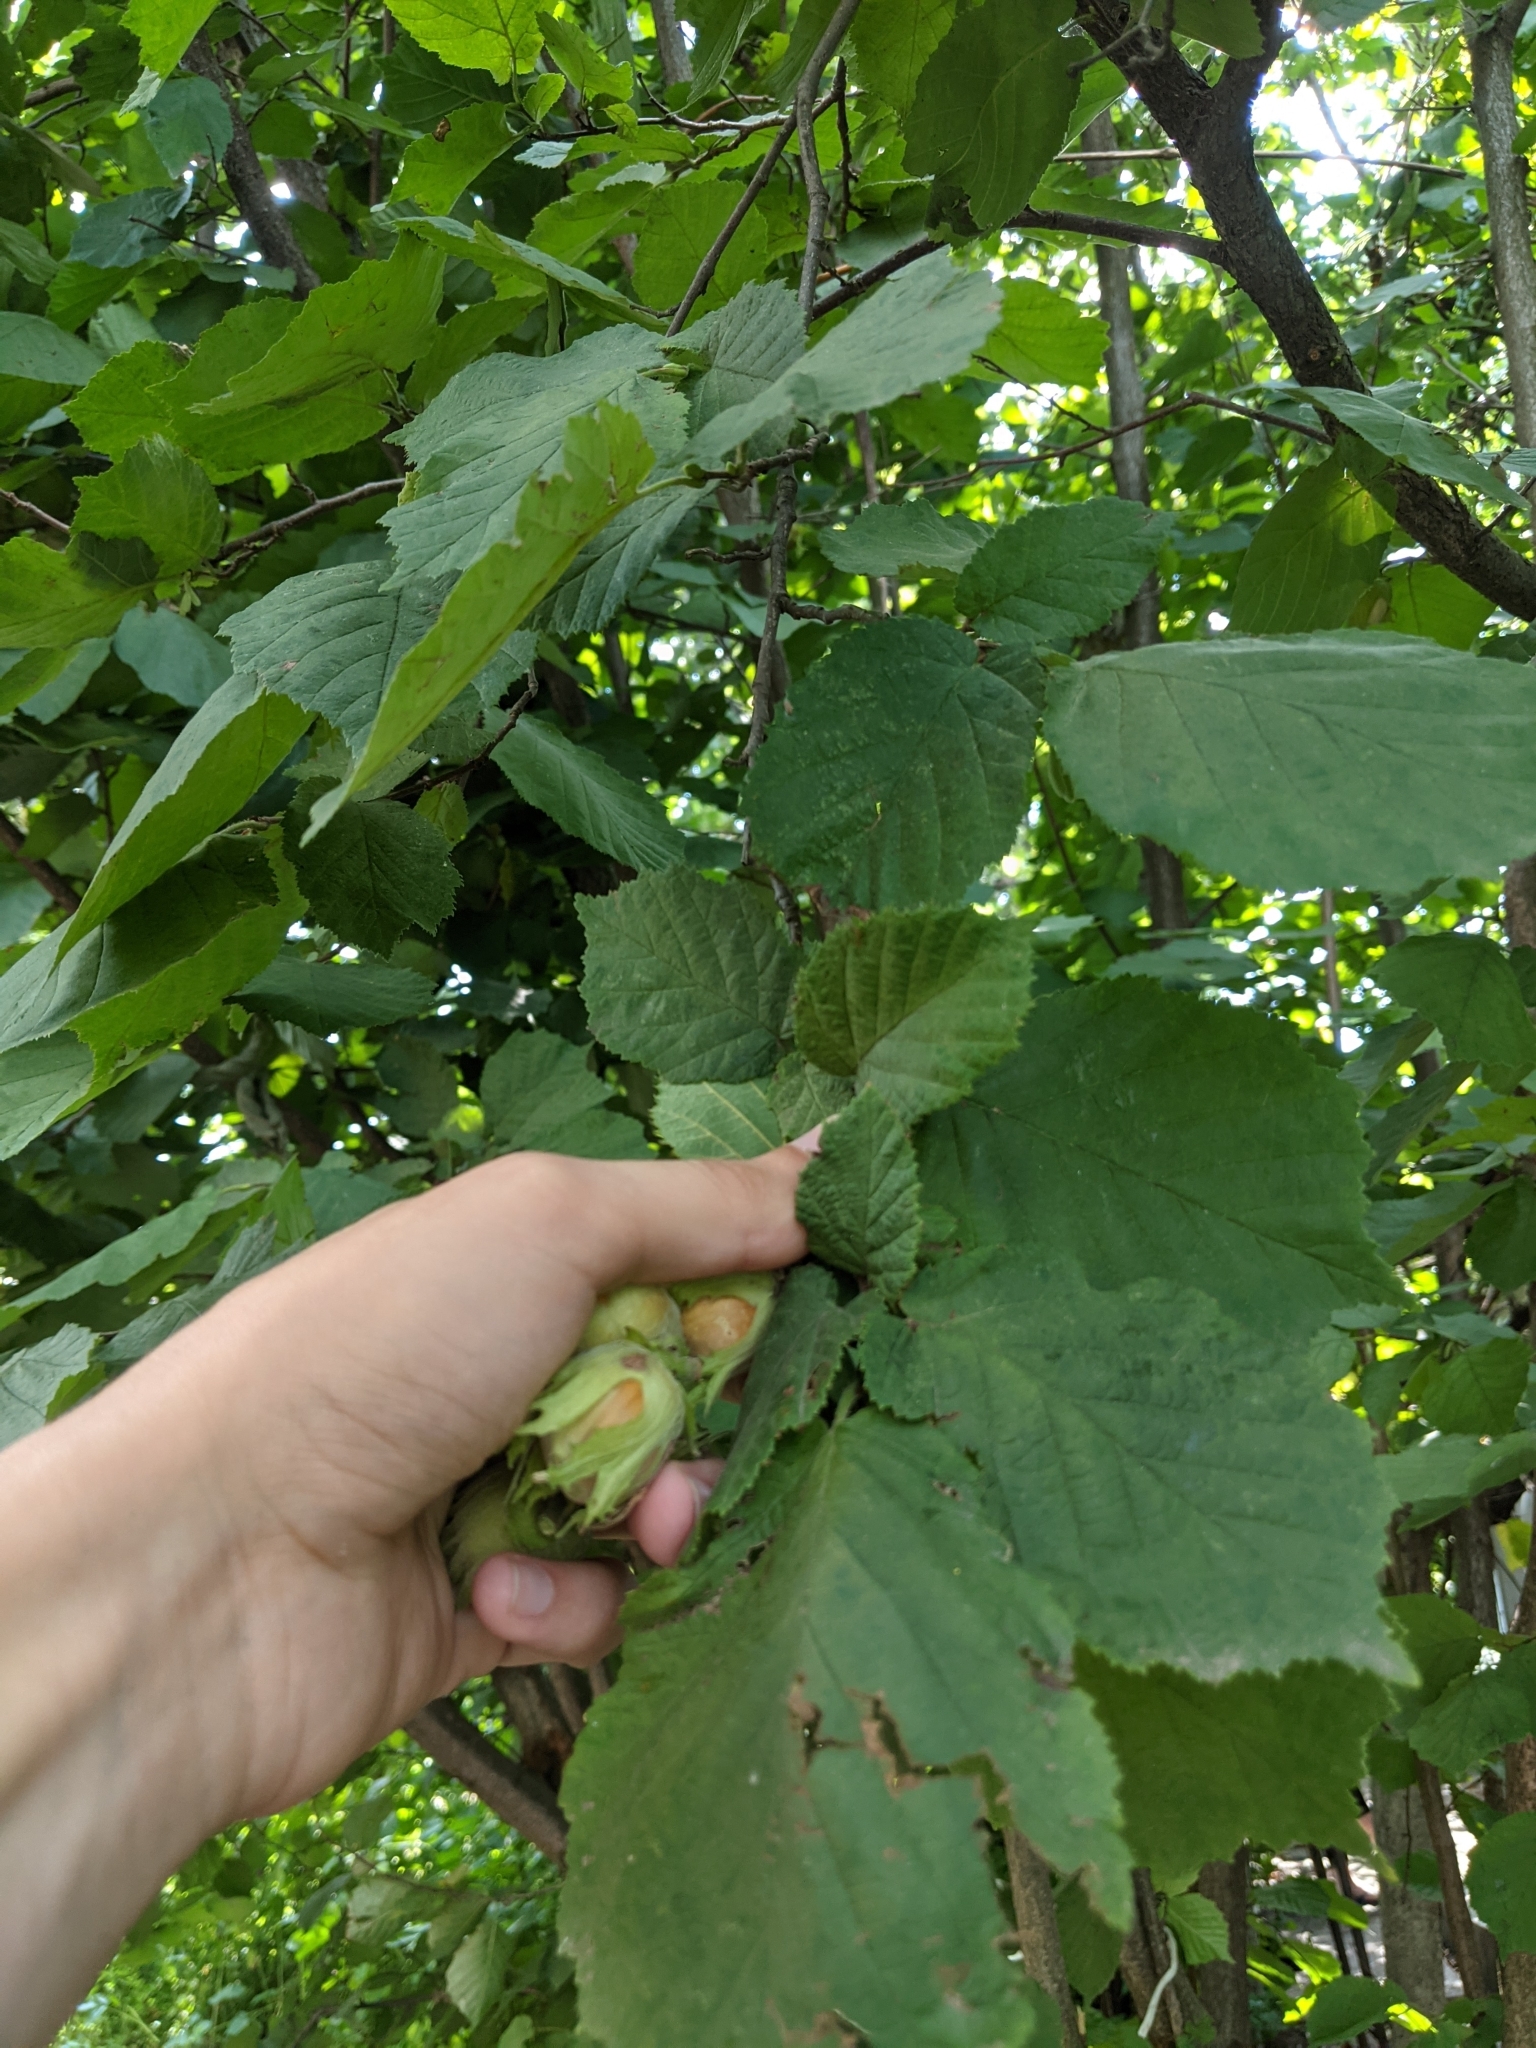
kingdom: Plantae
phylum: Tracheophyta
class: Magnoliopsida
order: Fagales
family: Betulaceae
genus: Corylus
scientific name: Corylus avellana
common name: European hazel
